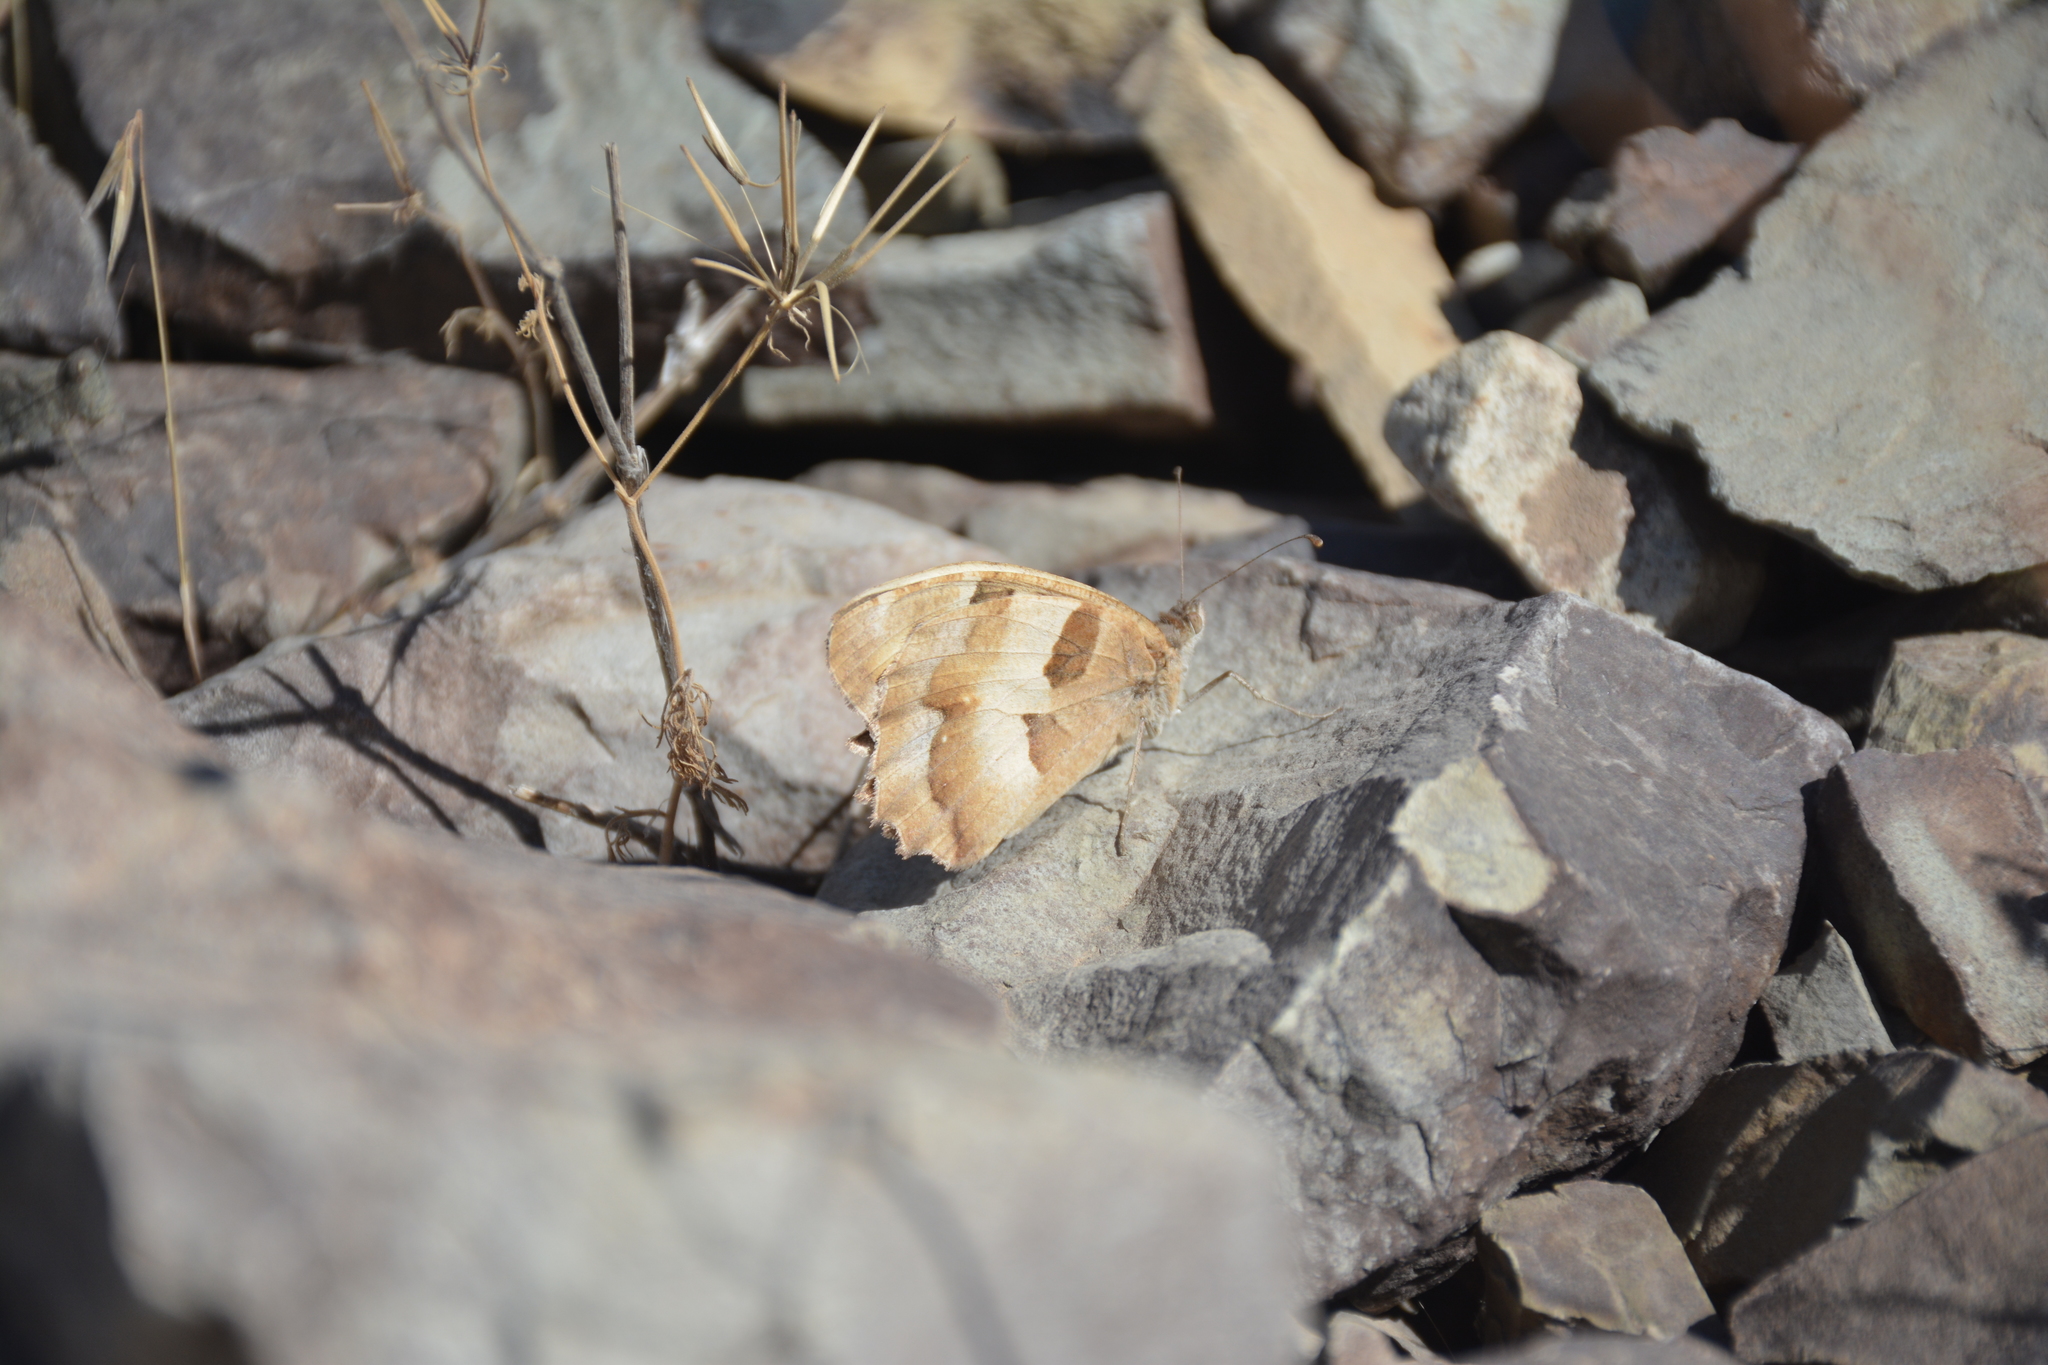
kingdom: Animalia
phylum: Arthropoda
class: Insecta
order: Lepidoptera
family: Nymphalidae
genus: Satyrus
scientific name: Satyrus briseis
